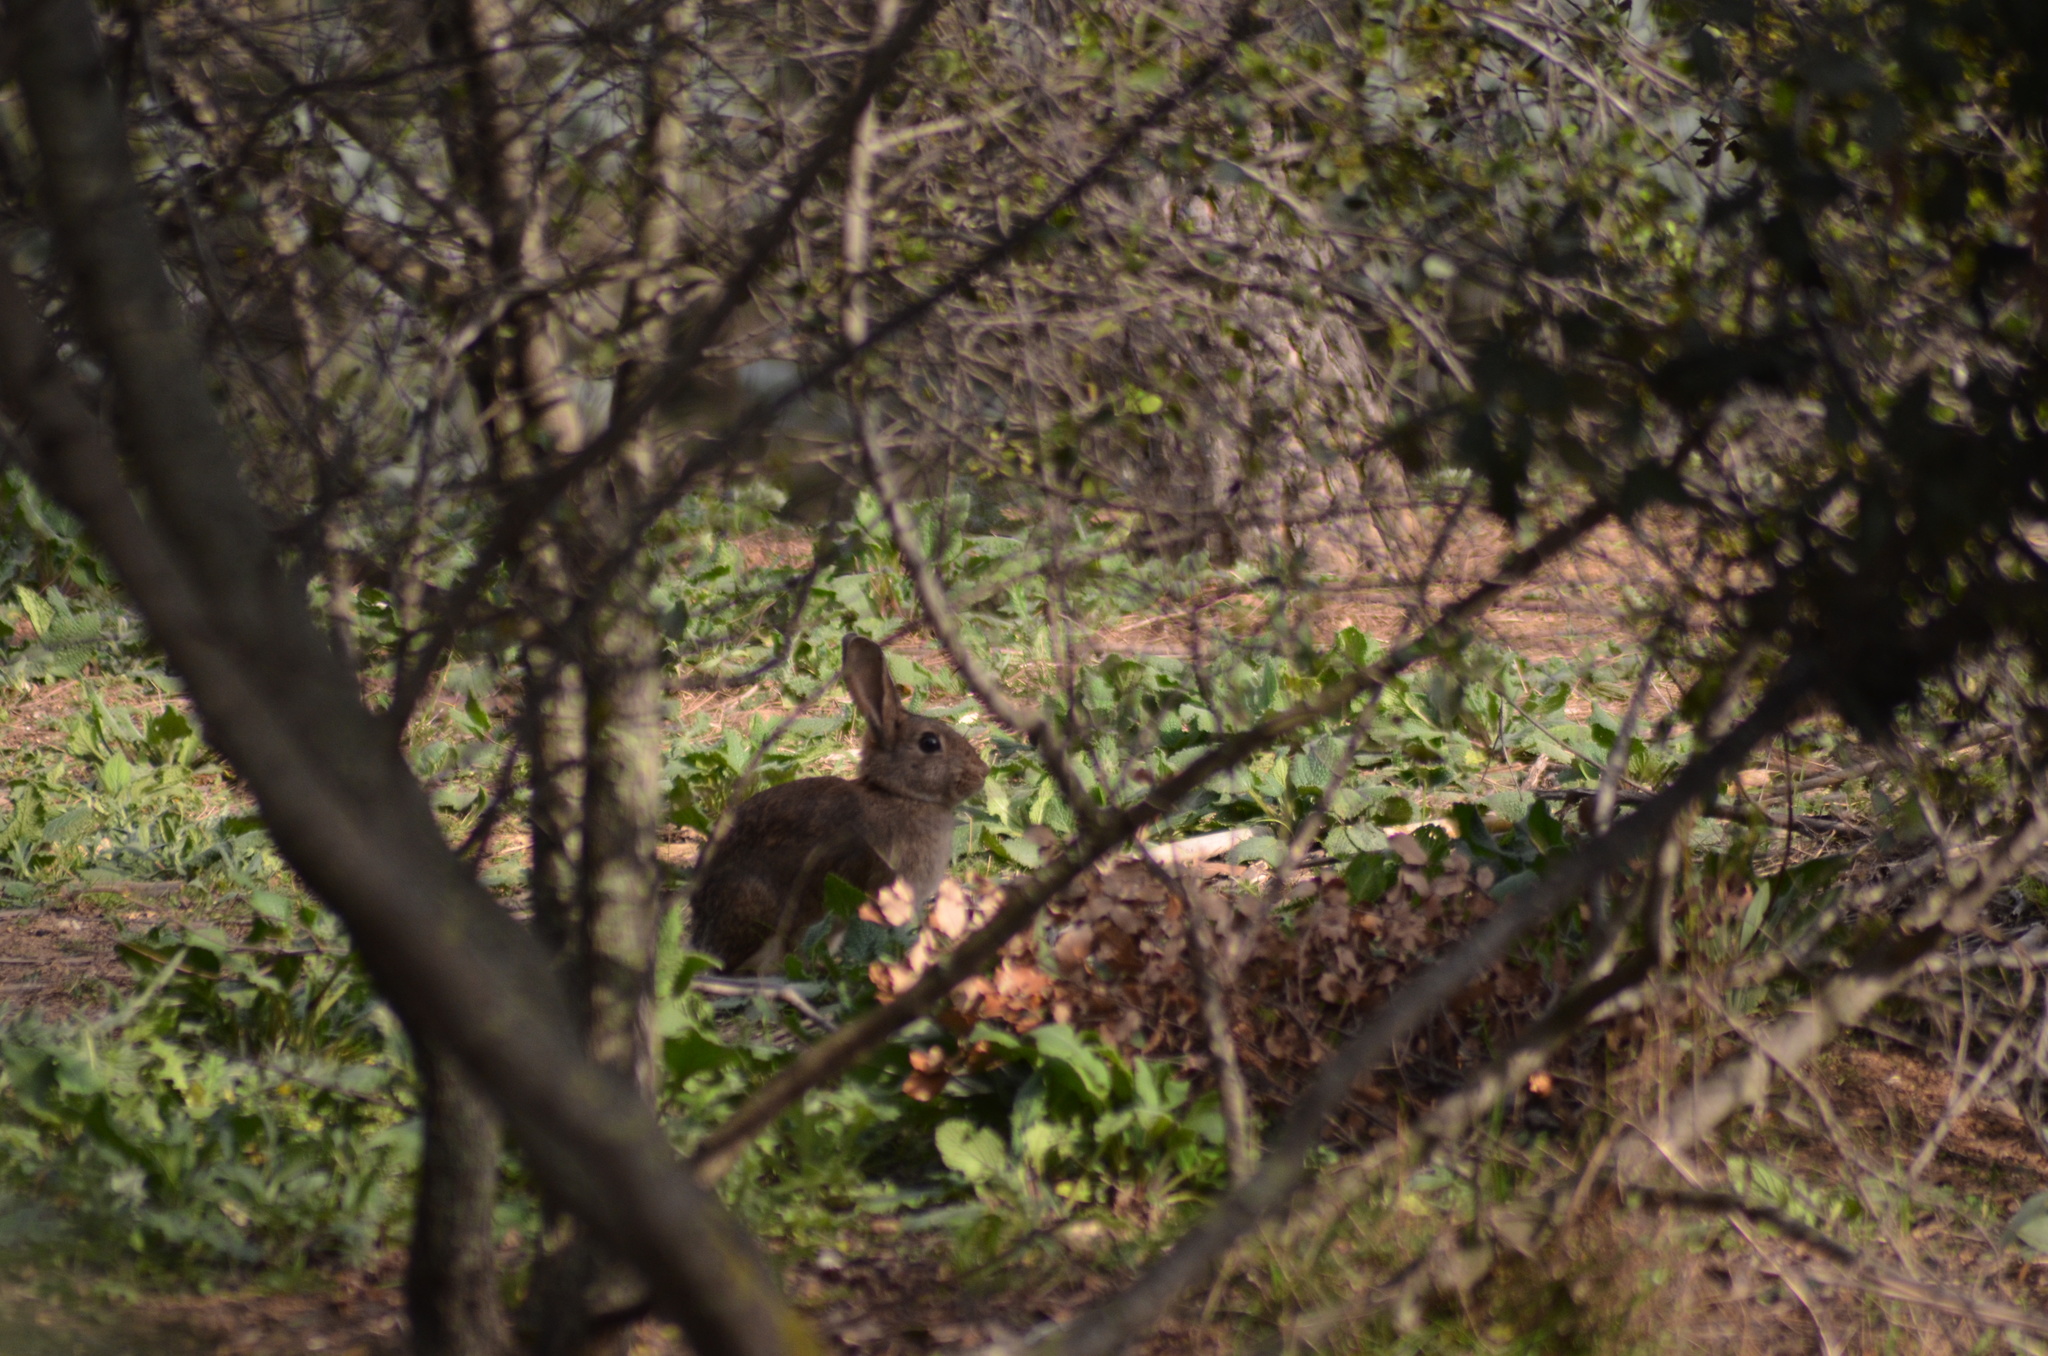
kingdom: Animalia
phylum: Chordata
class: Mammalia
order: Lagomorpha
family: Leporidae
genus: Oryctolagus
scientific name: Oryctolagus cuniculus
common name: European rabbit
